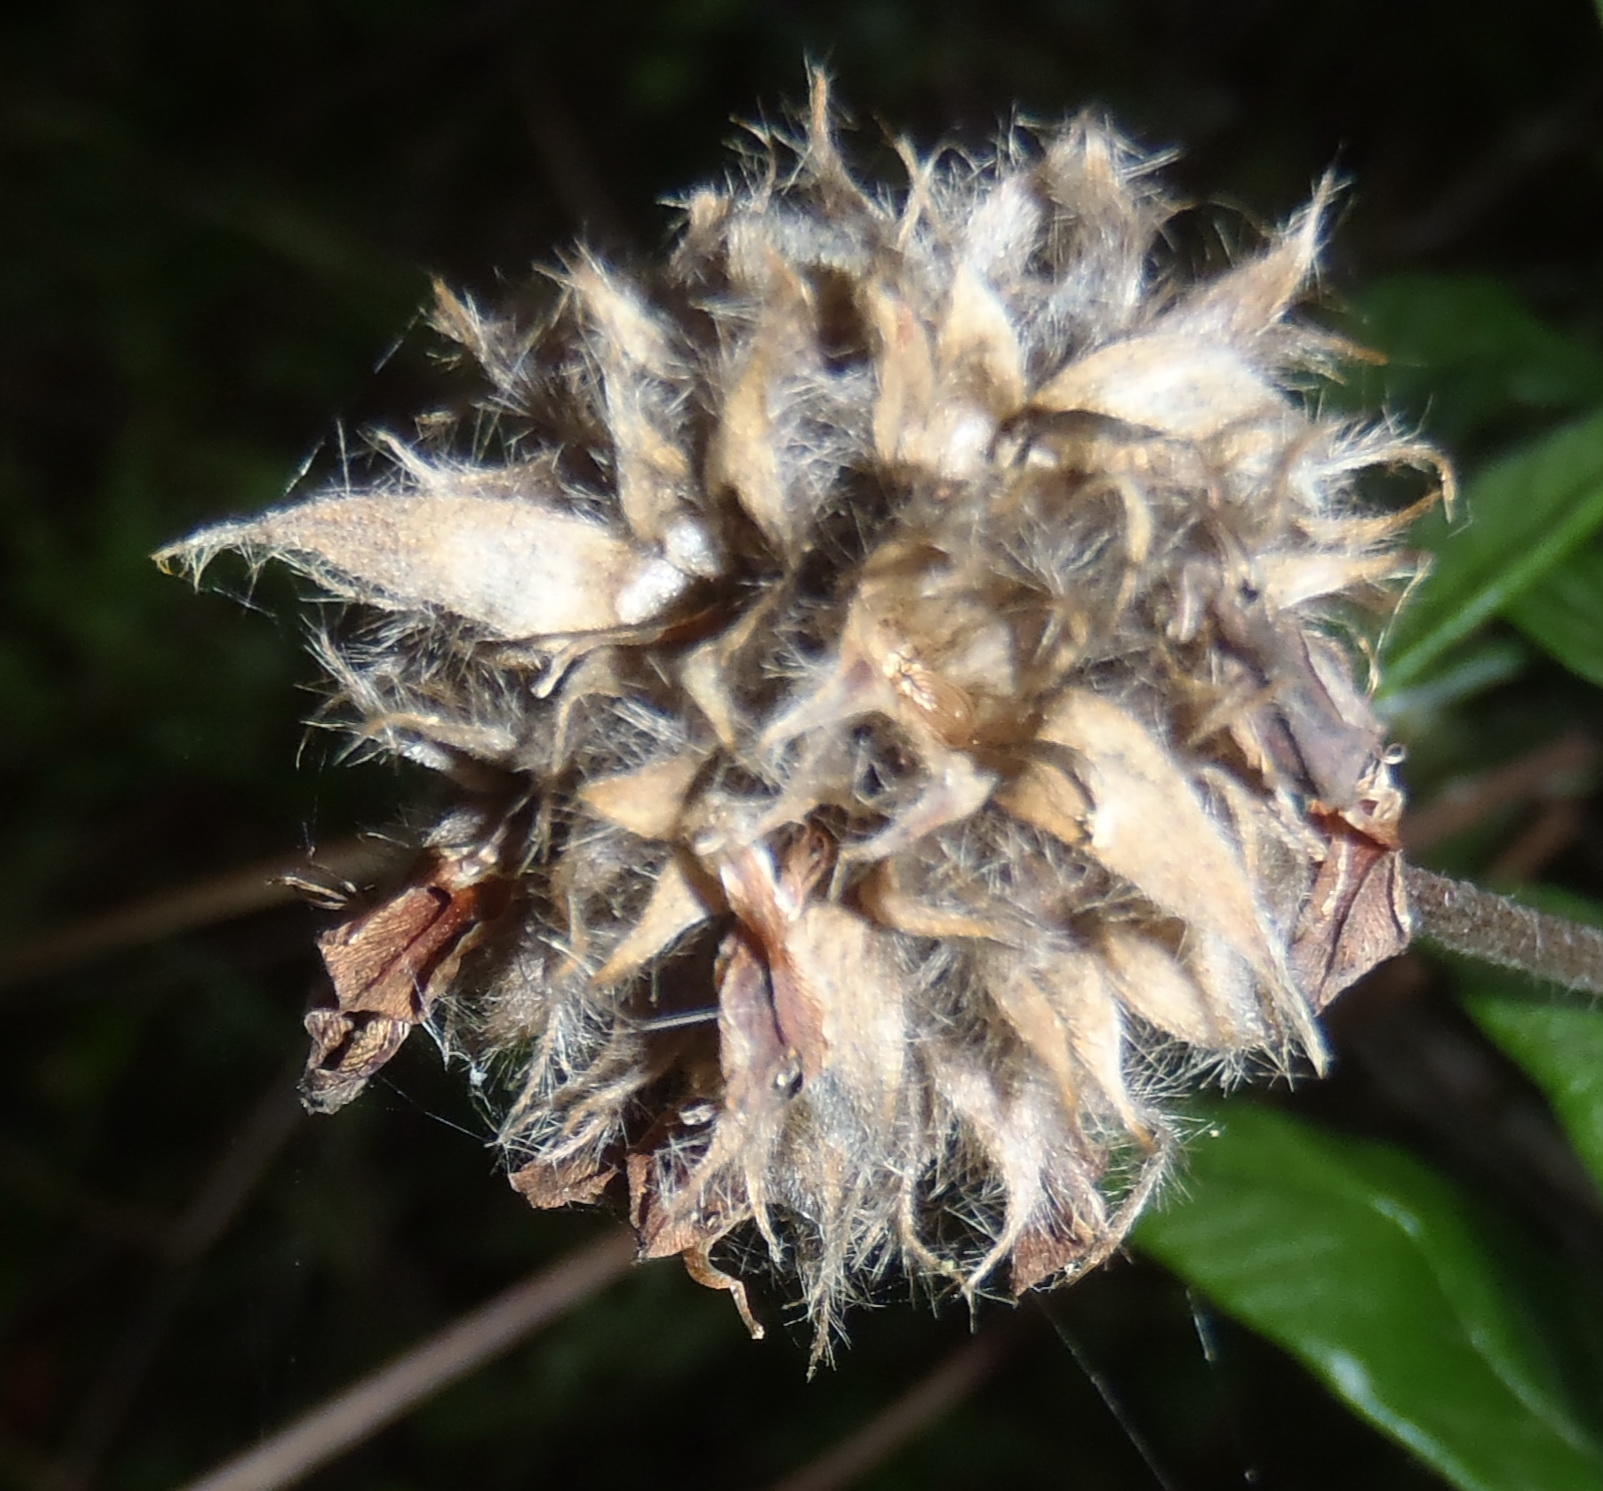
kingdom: Plantae
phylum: Tracheophyta
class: Magnoliopsida
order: Fabales
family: Fabaceae
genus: Psoralea
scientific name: Psoralea sericea
